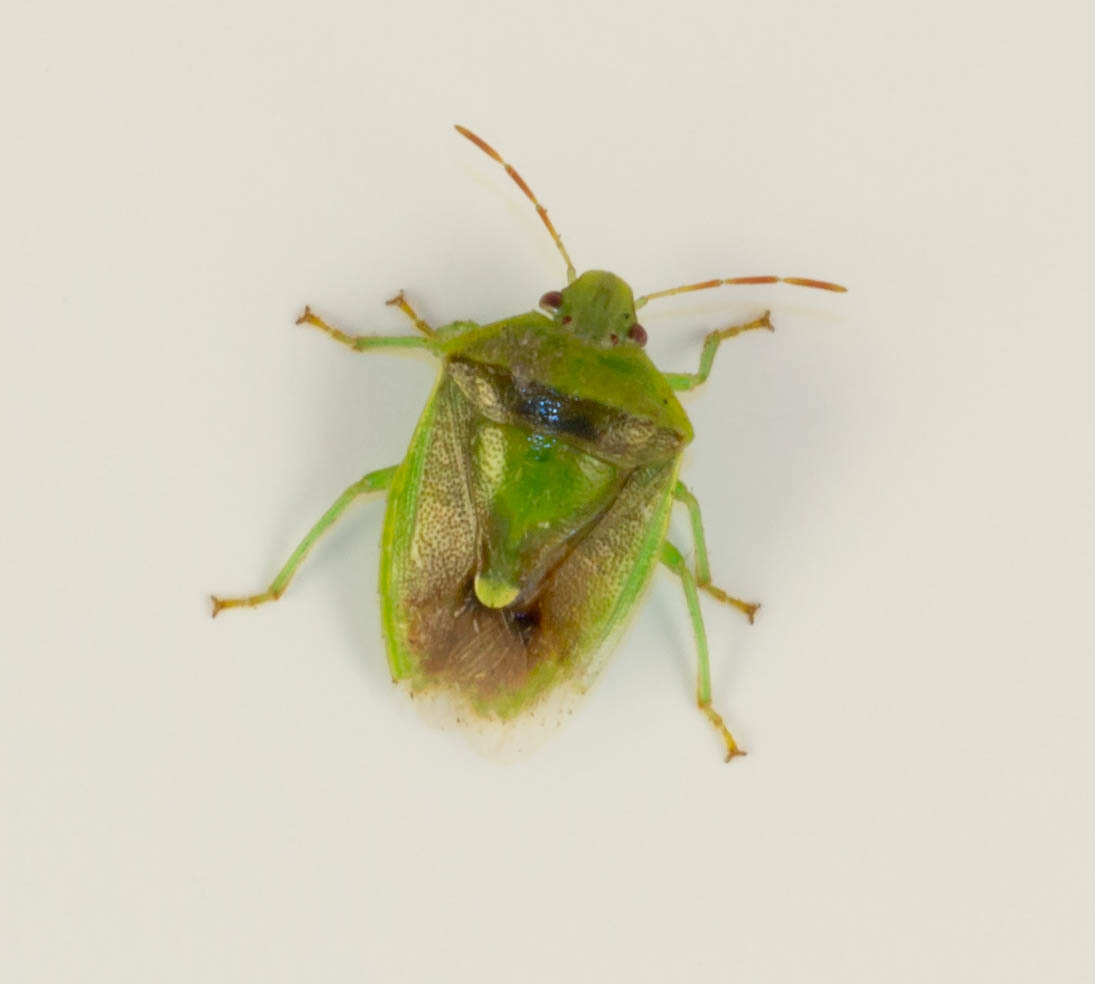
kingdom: Animalia
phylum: Arthropoda
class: Insecta
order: Hemiptera
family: Pentatomidae
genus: Banasa
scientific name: Banasa dimidiata
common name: Green burgundy stink bug
